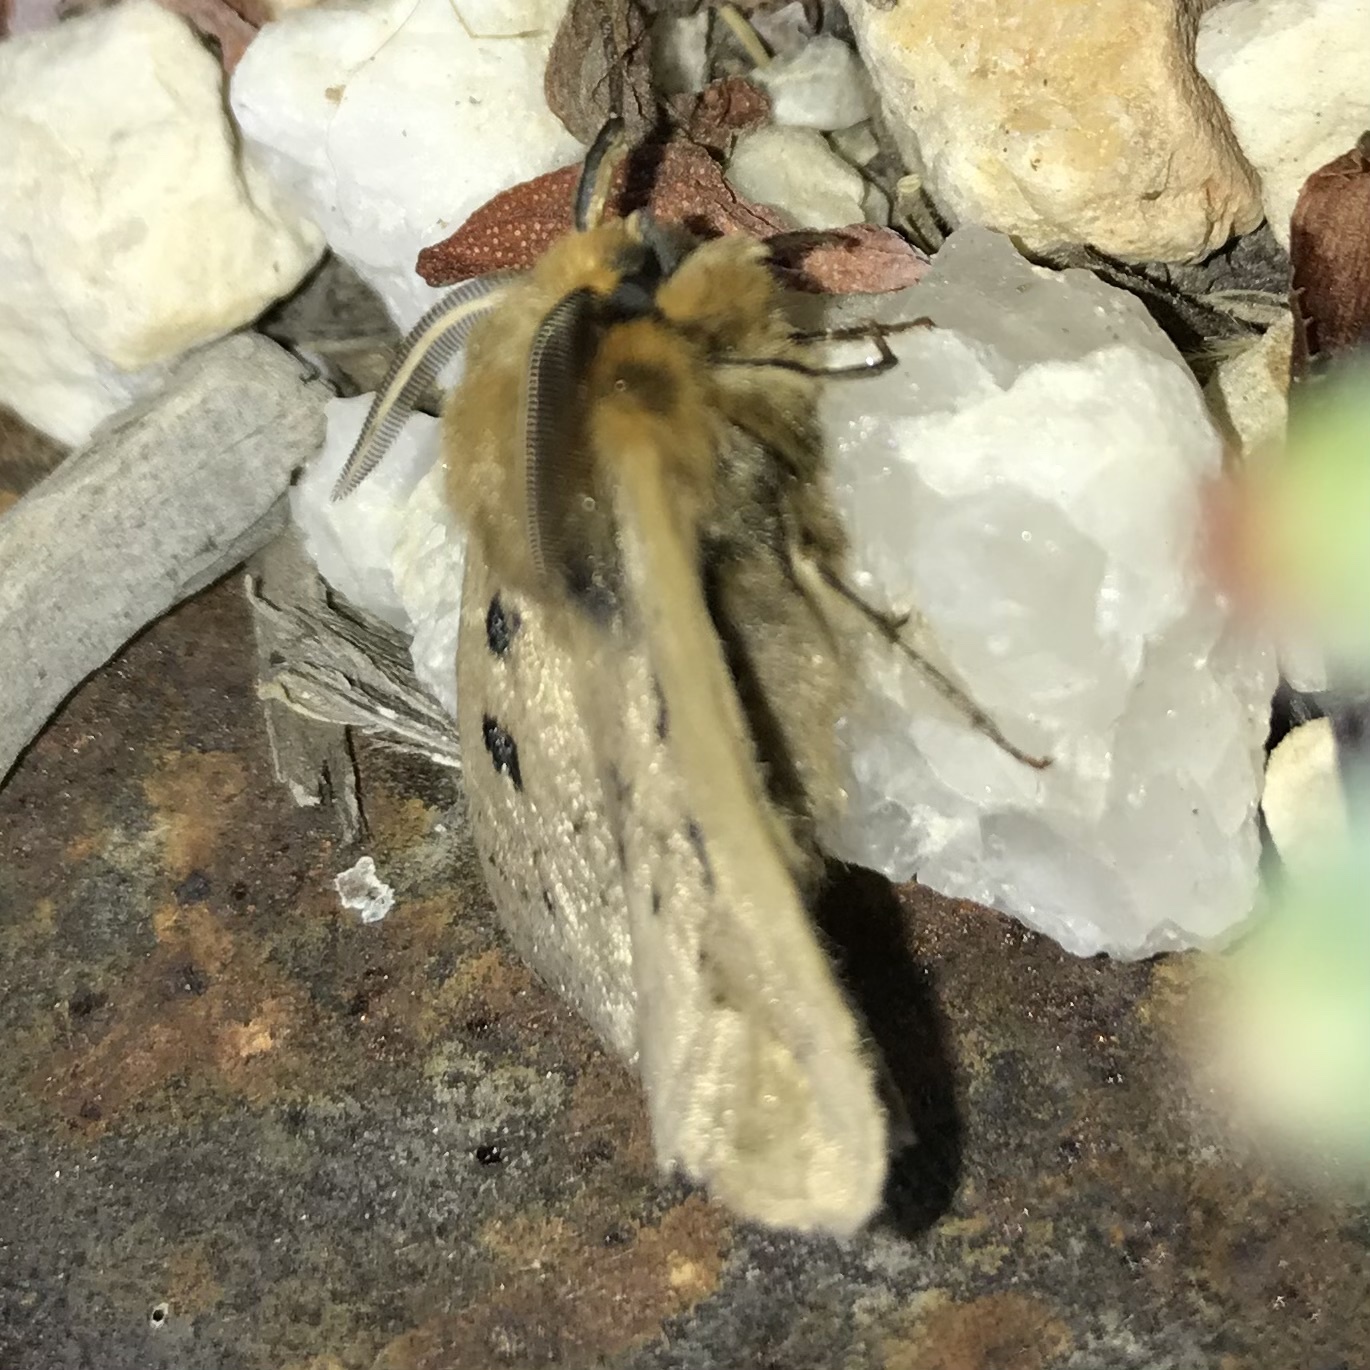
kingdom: Animalia
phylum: Arthropoda
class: Insecta
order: Lepidoptera
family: Anthelidae
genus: Anthela
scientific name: Anthela ocellata
